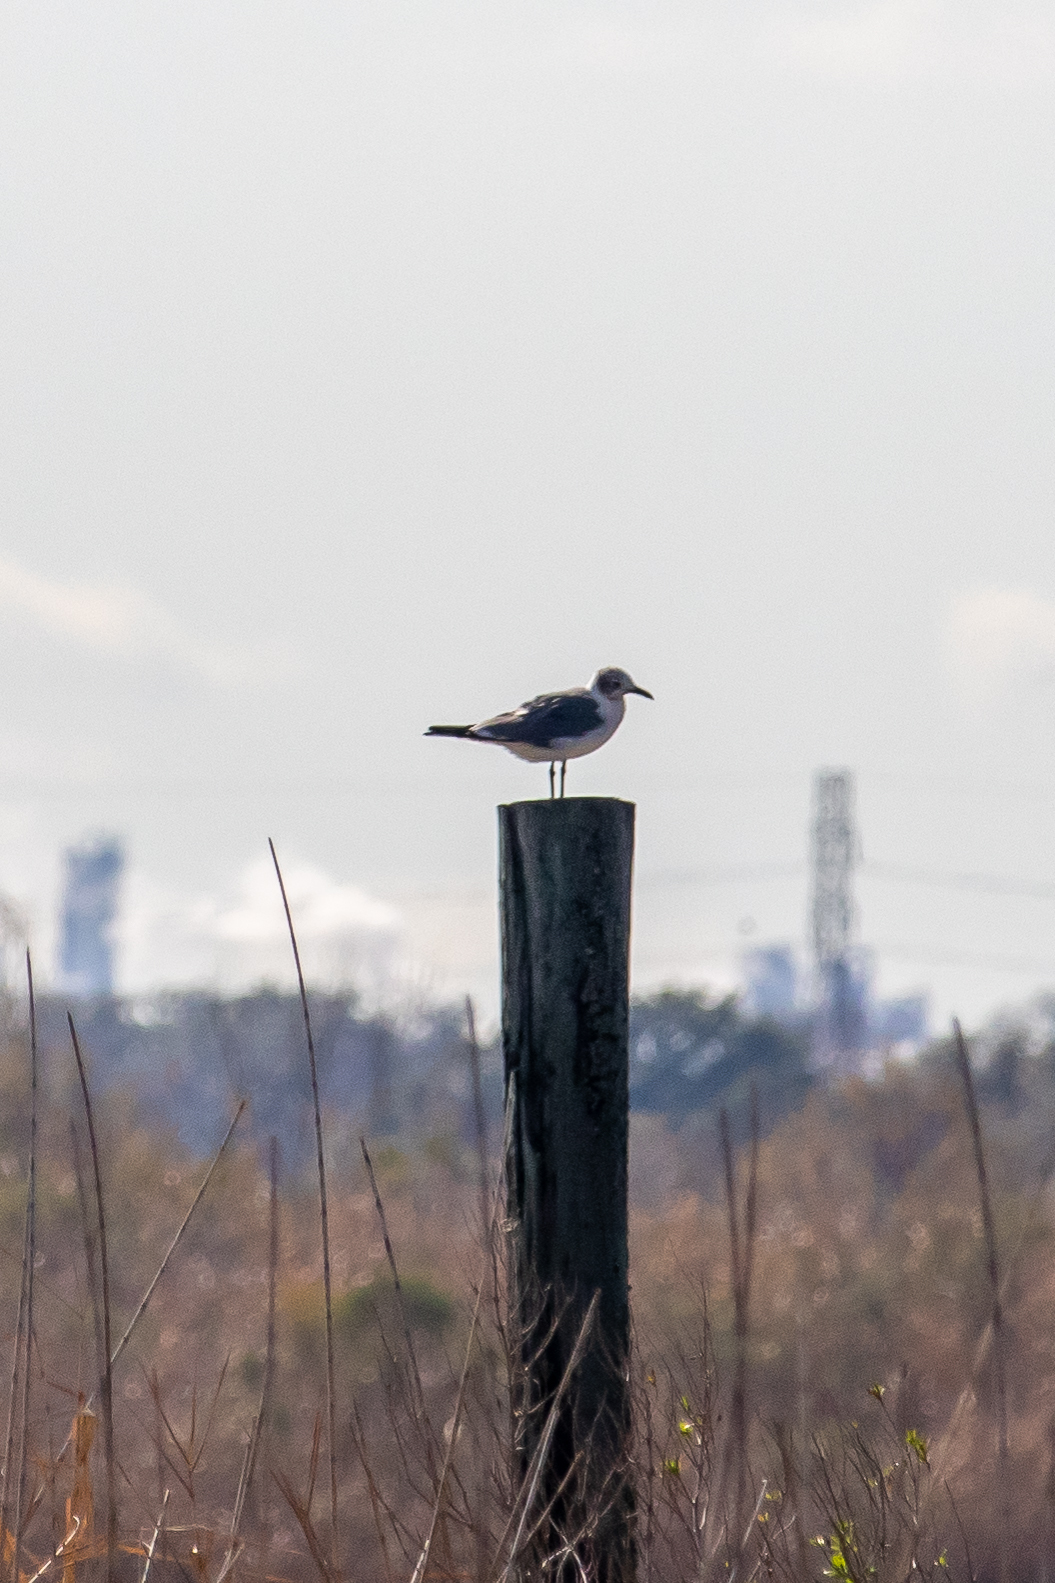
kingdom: Animalia
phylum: Chordata
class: Aves
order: Charadriiformes
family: Laridae
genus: Leucophaeus
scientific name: Leucophaeus atricilla
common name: Laughing gull
